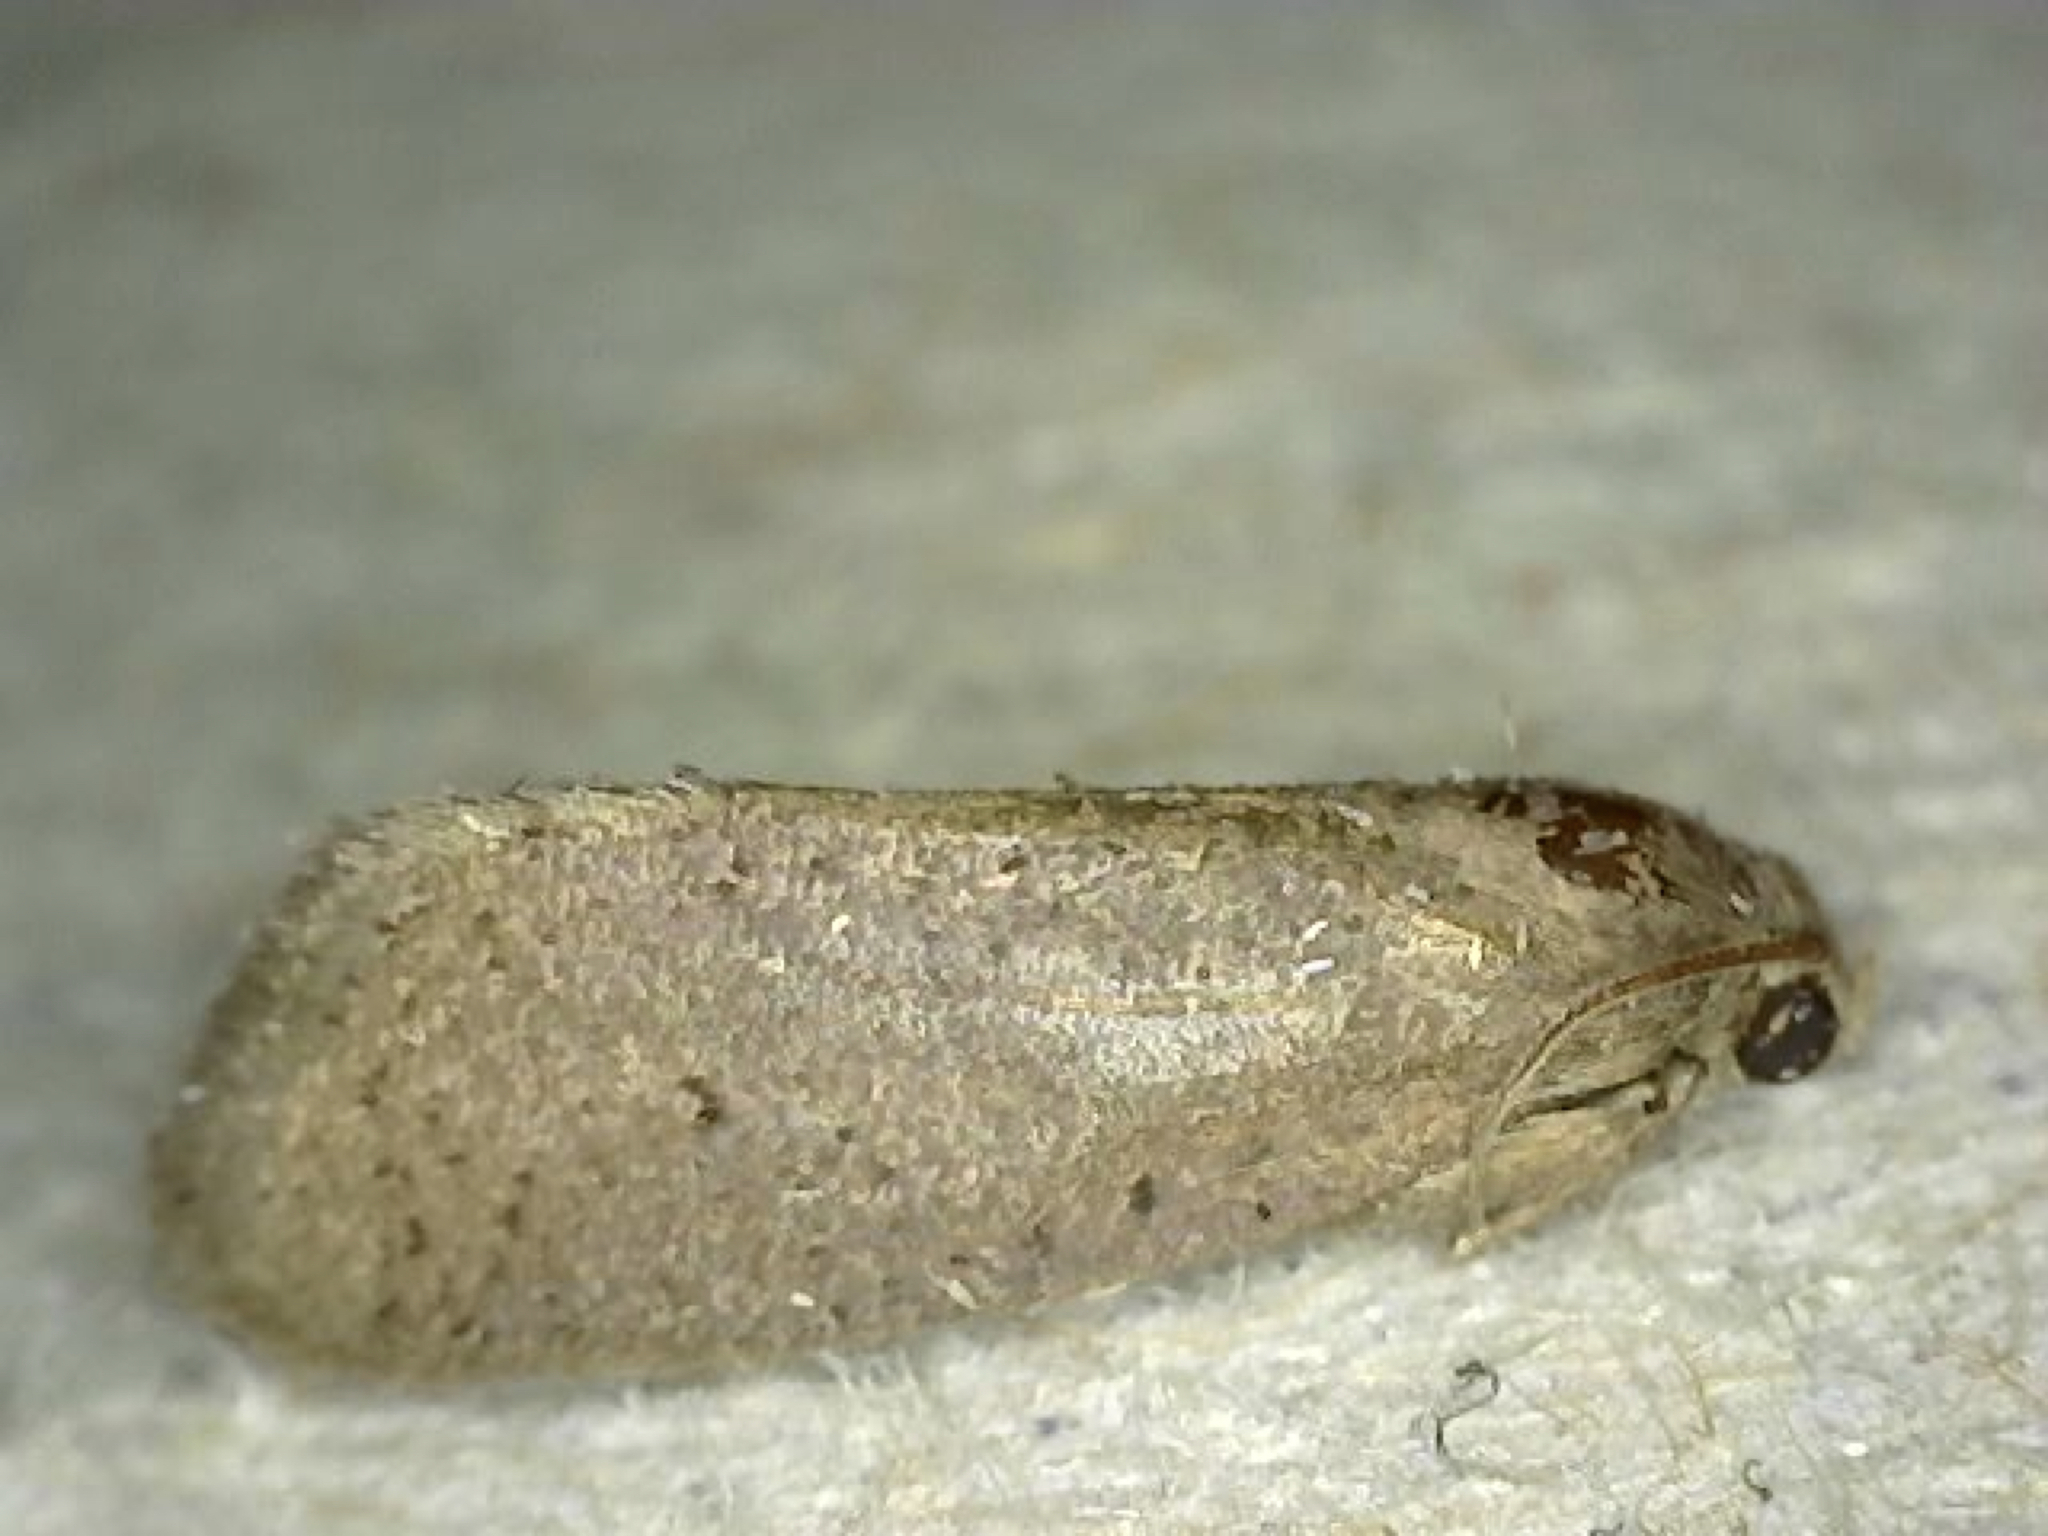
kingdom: Animalia
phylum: Arthropoda
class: Insecta
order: Lepidoptera
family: Tineidae
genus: Acrolophus
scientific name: Acrolophus
